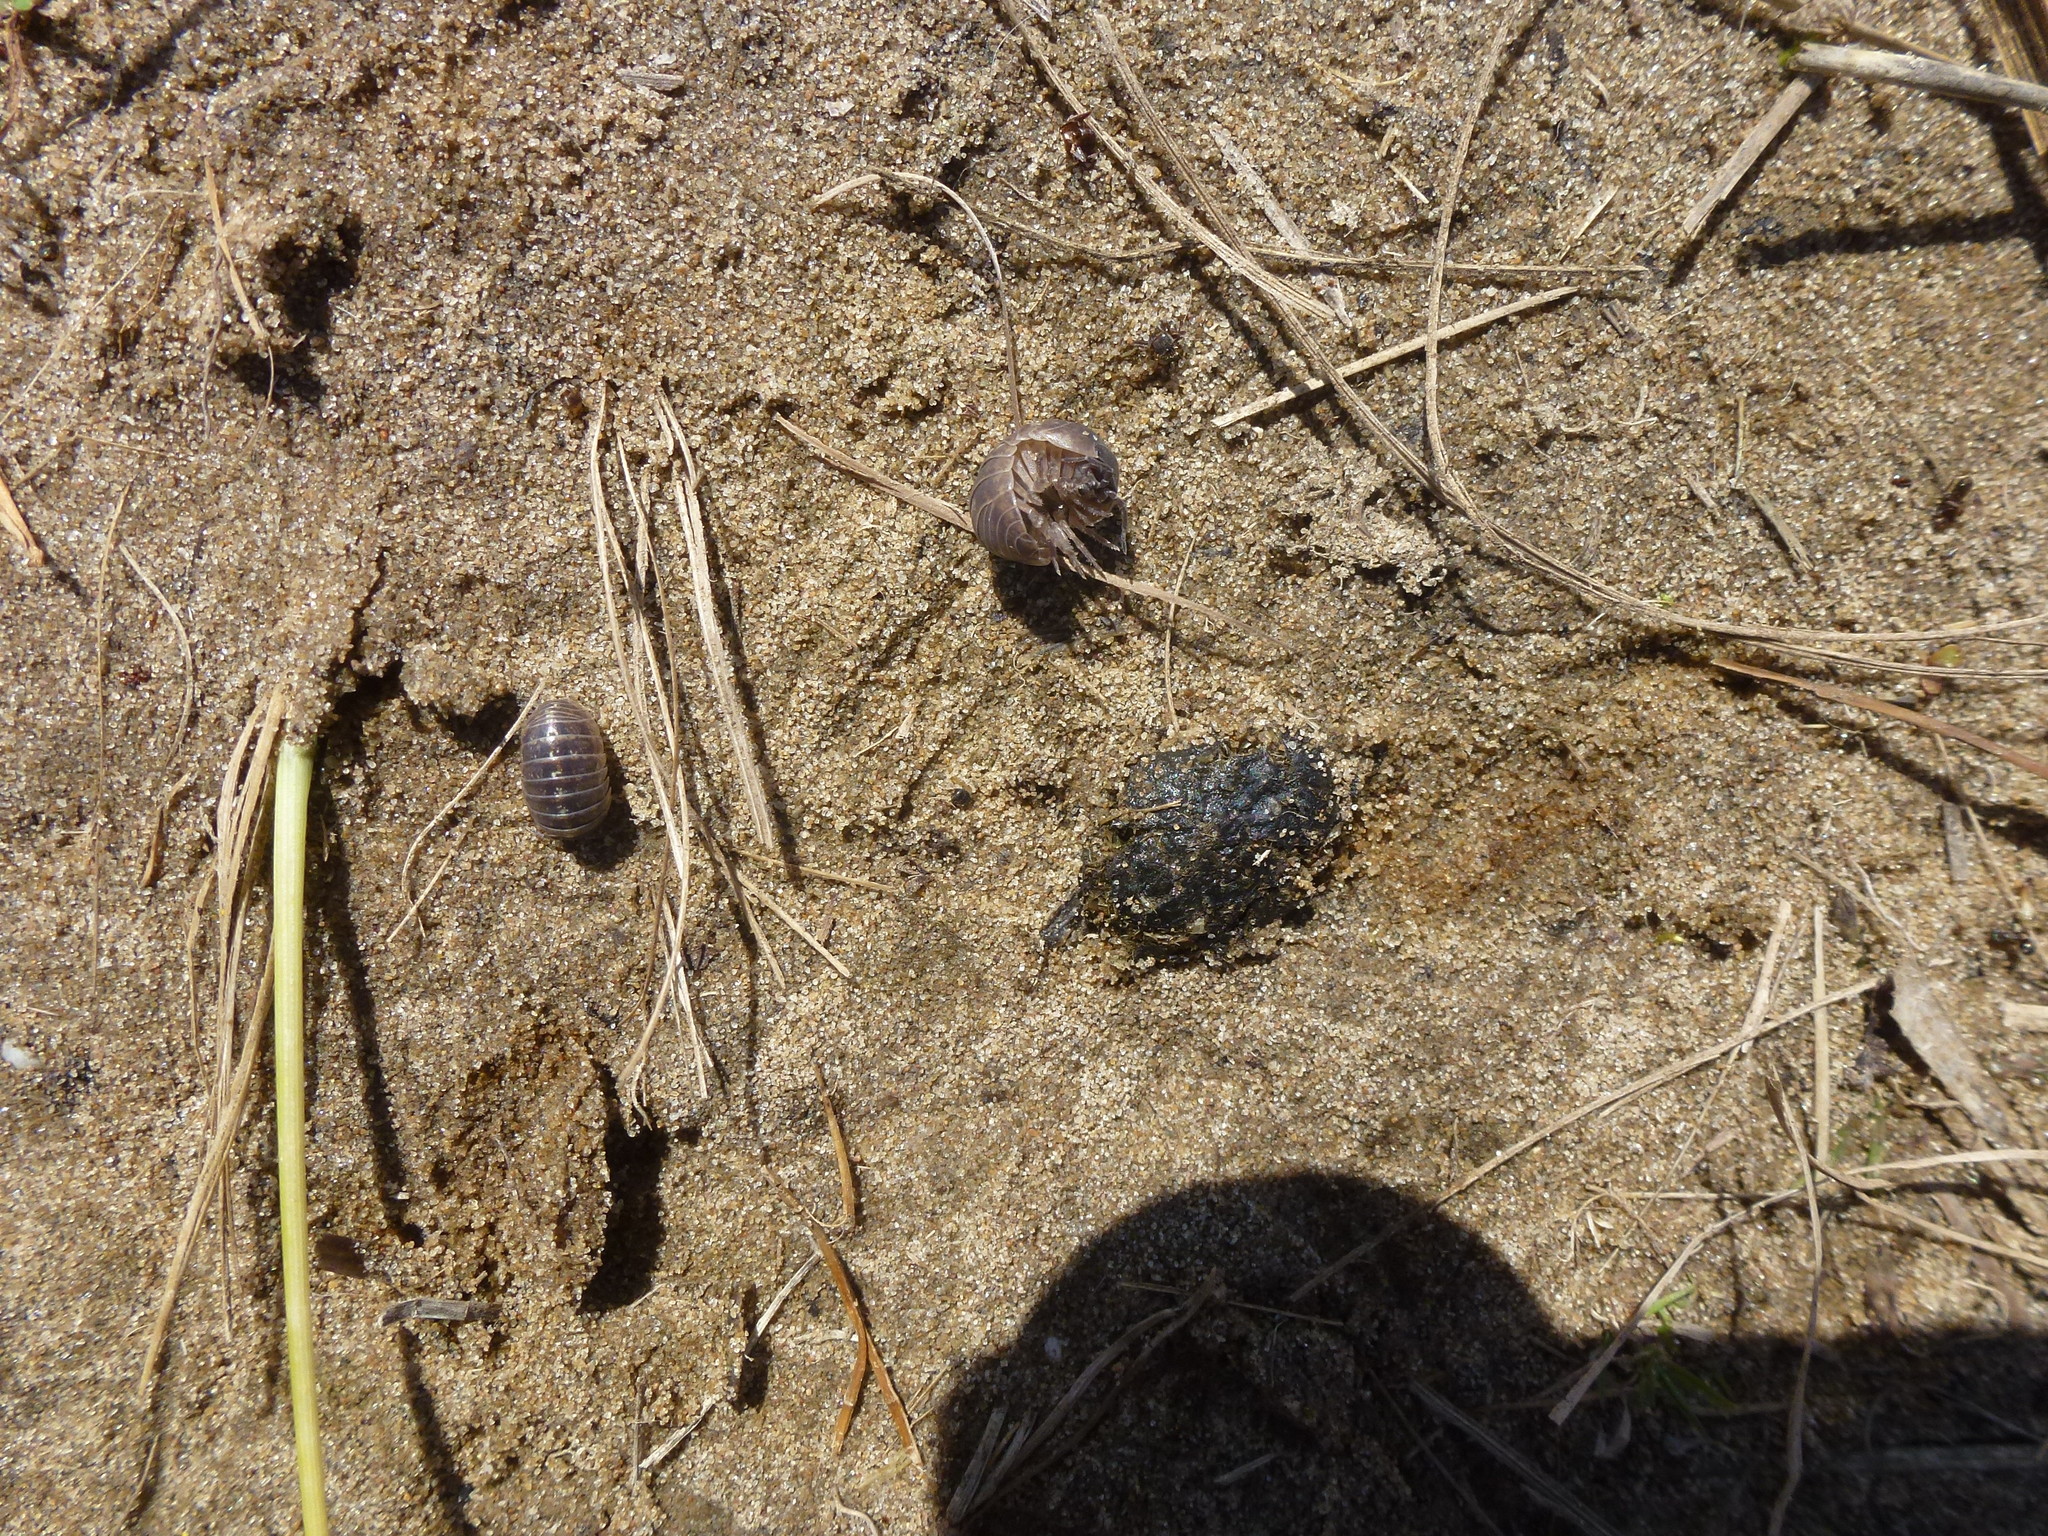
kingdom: Animalia
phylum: Arthropoda
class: Malacostraca
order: Isopoda
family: Armadillidiidae
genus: Armadillidium
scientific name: Armadillidium vulgare
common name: Common pill woodlouse
